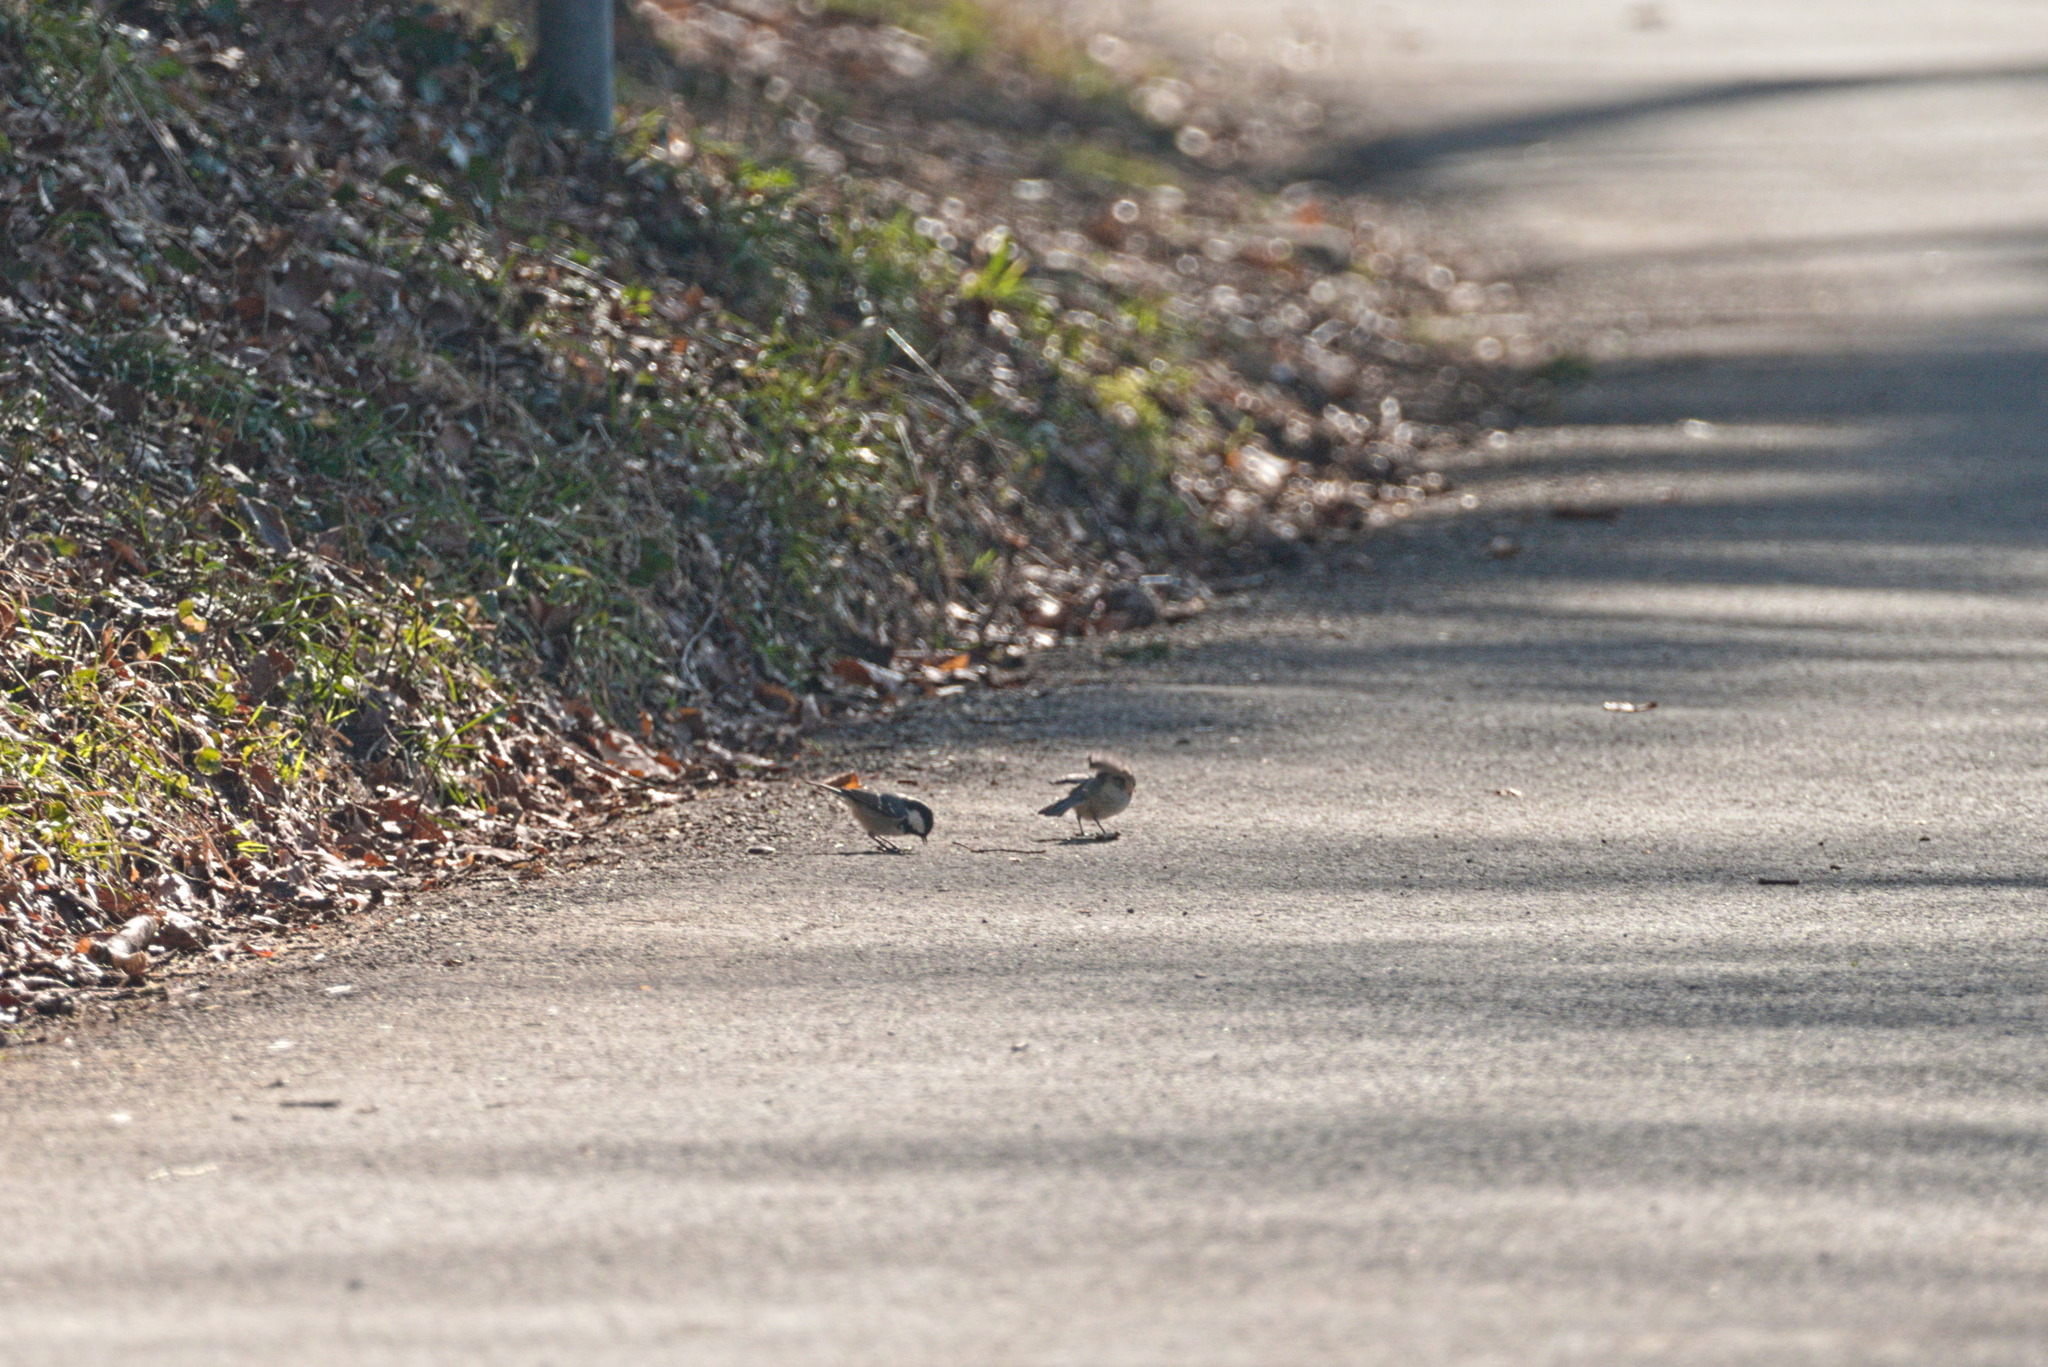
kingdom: Animalia
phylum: Chordata
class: Aves
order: Passeriformes
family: Paridae
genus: Periparus
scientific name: Periparus ater
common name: Coal tit
